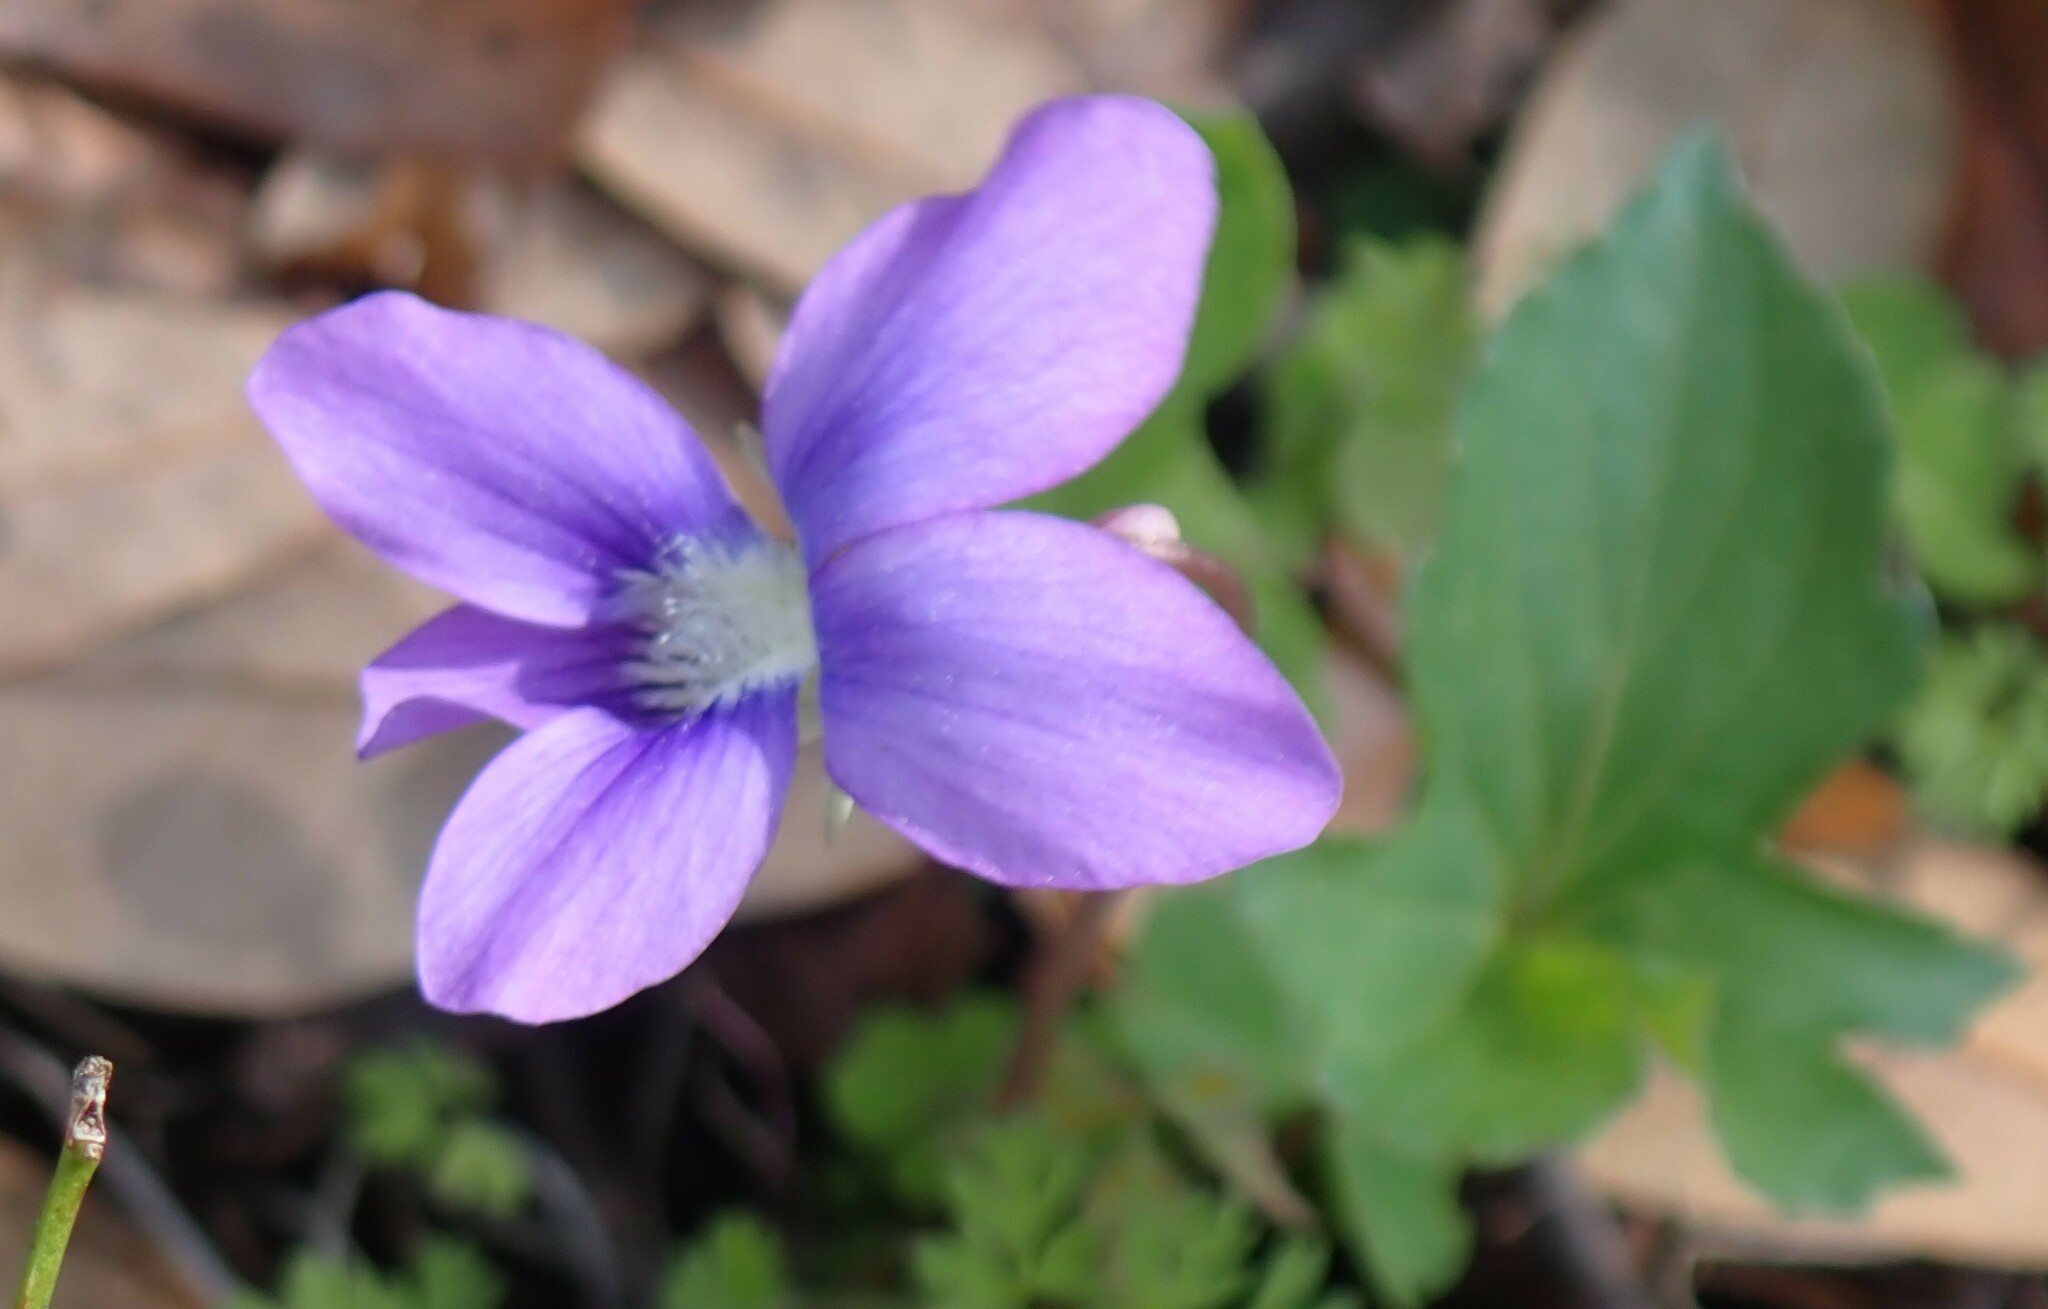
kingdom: Plantae
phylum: Tracheophyta
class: Magnoliopsida
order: Malpighiales
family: Violaceae
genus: Viola
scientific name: Viola palmata
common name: Early blue violet
